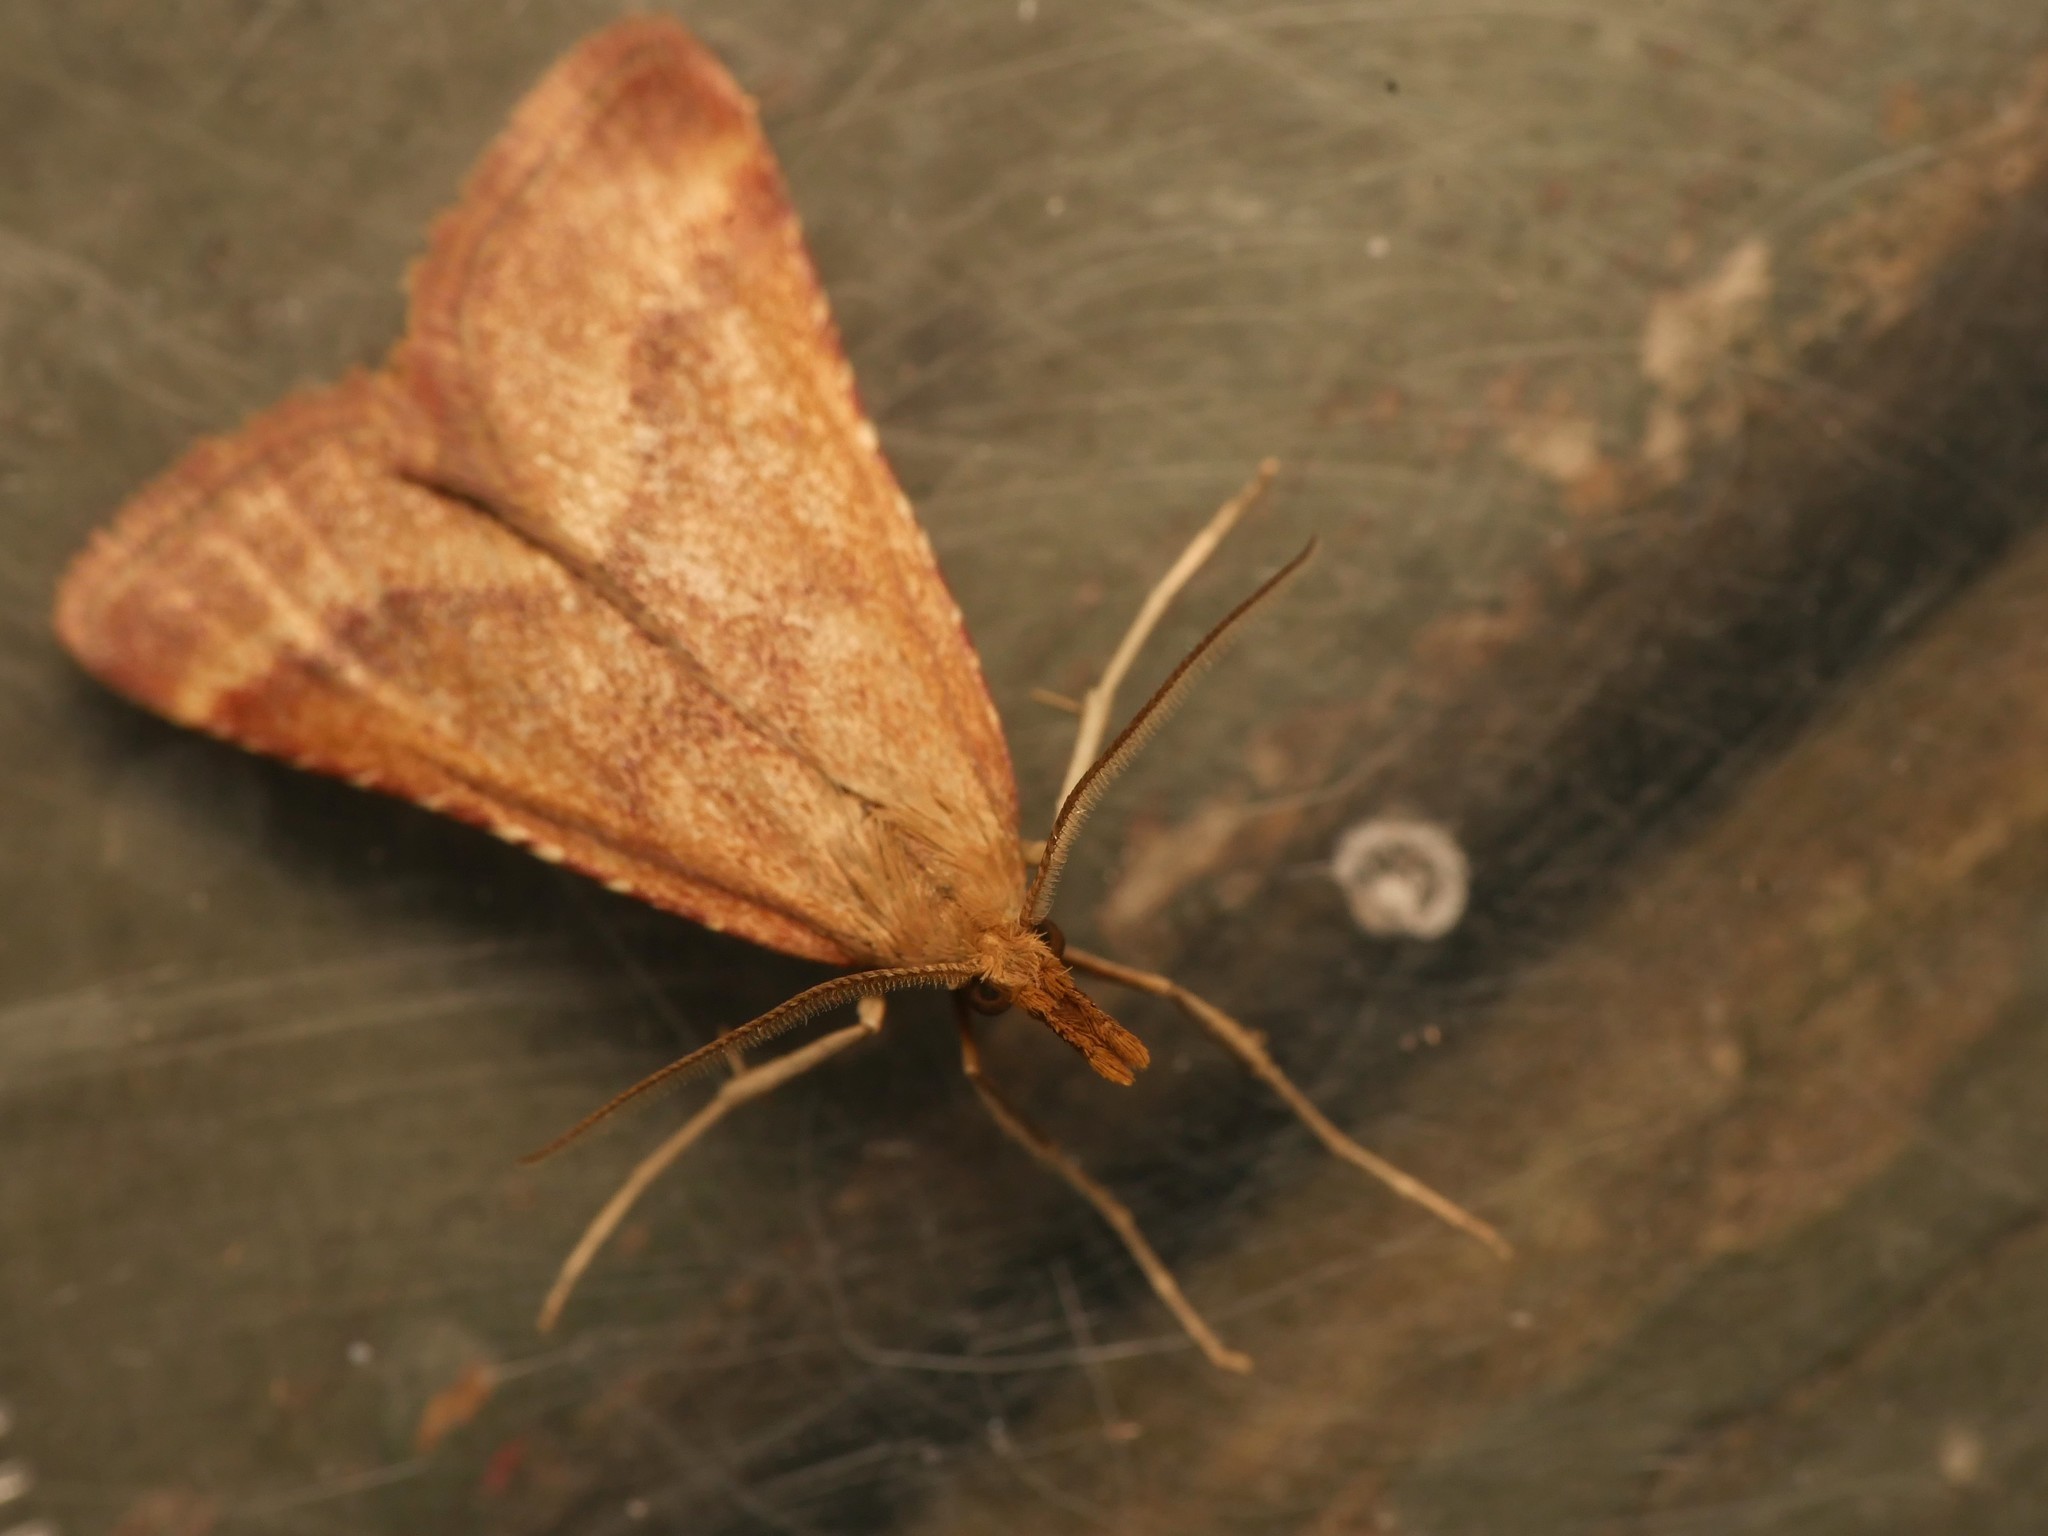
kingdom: Animalia
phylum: Arthropoda
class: Insecta
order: Lepidoptera
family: Pyralidae
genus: Synaphe
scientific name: Synaphe punctalis
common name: Long-legged tabby
